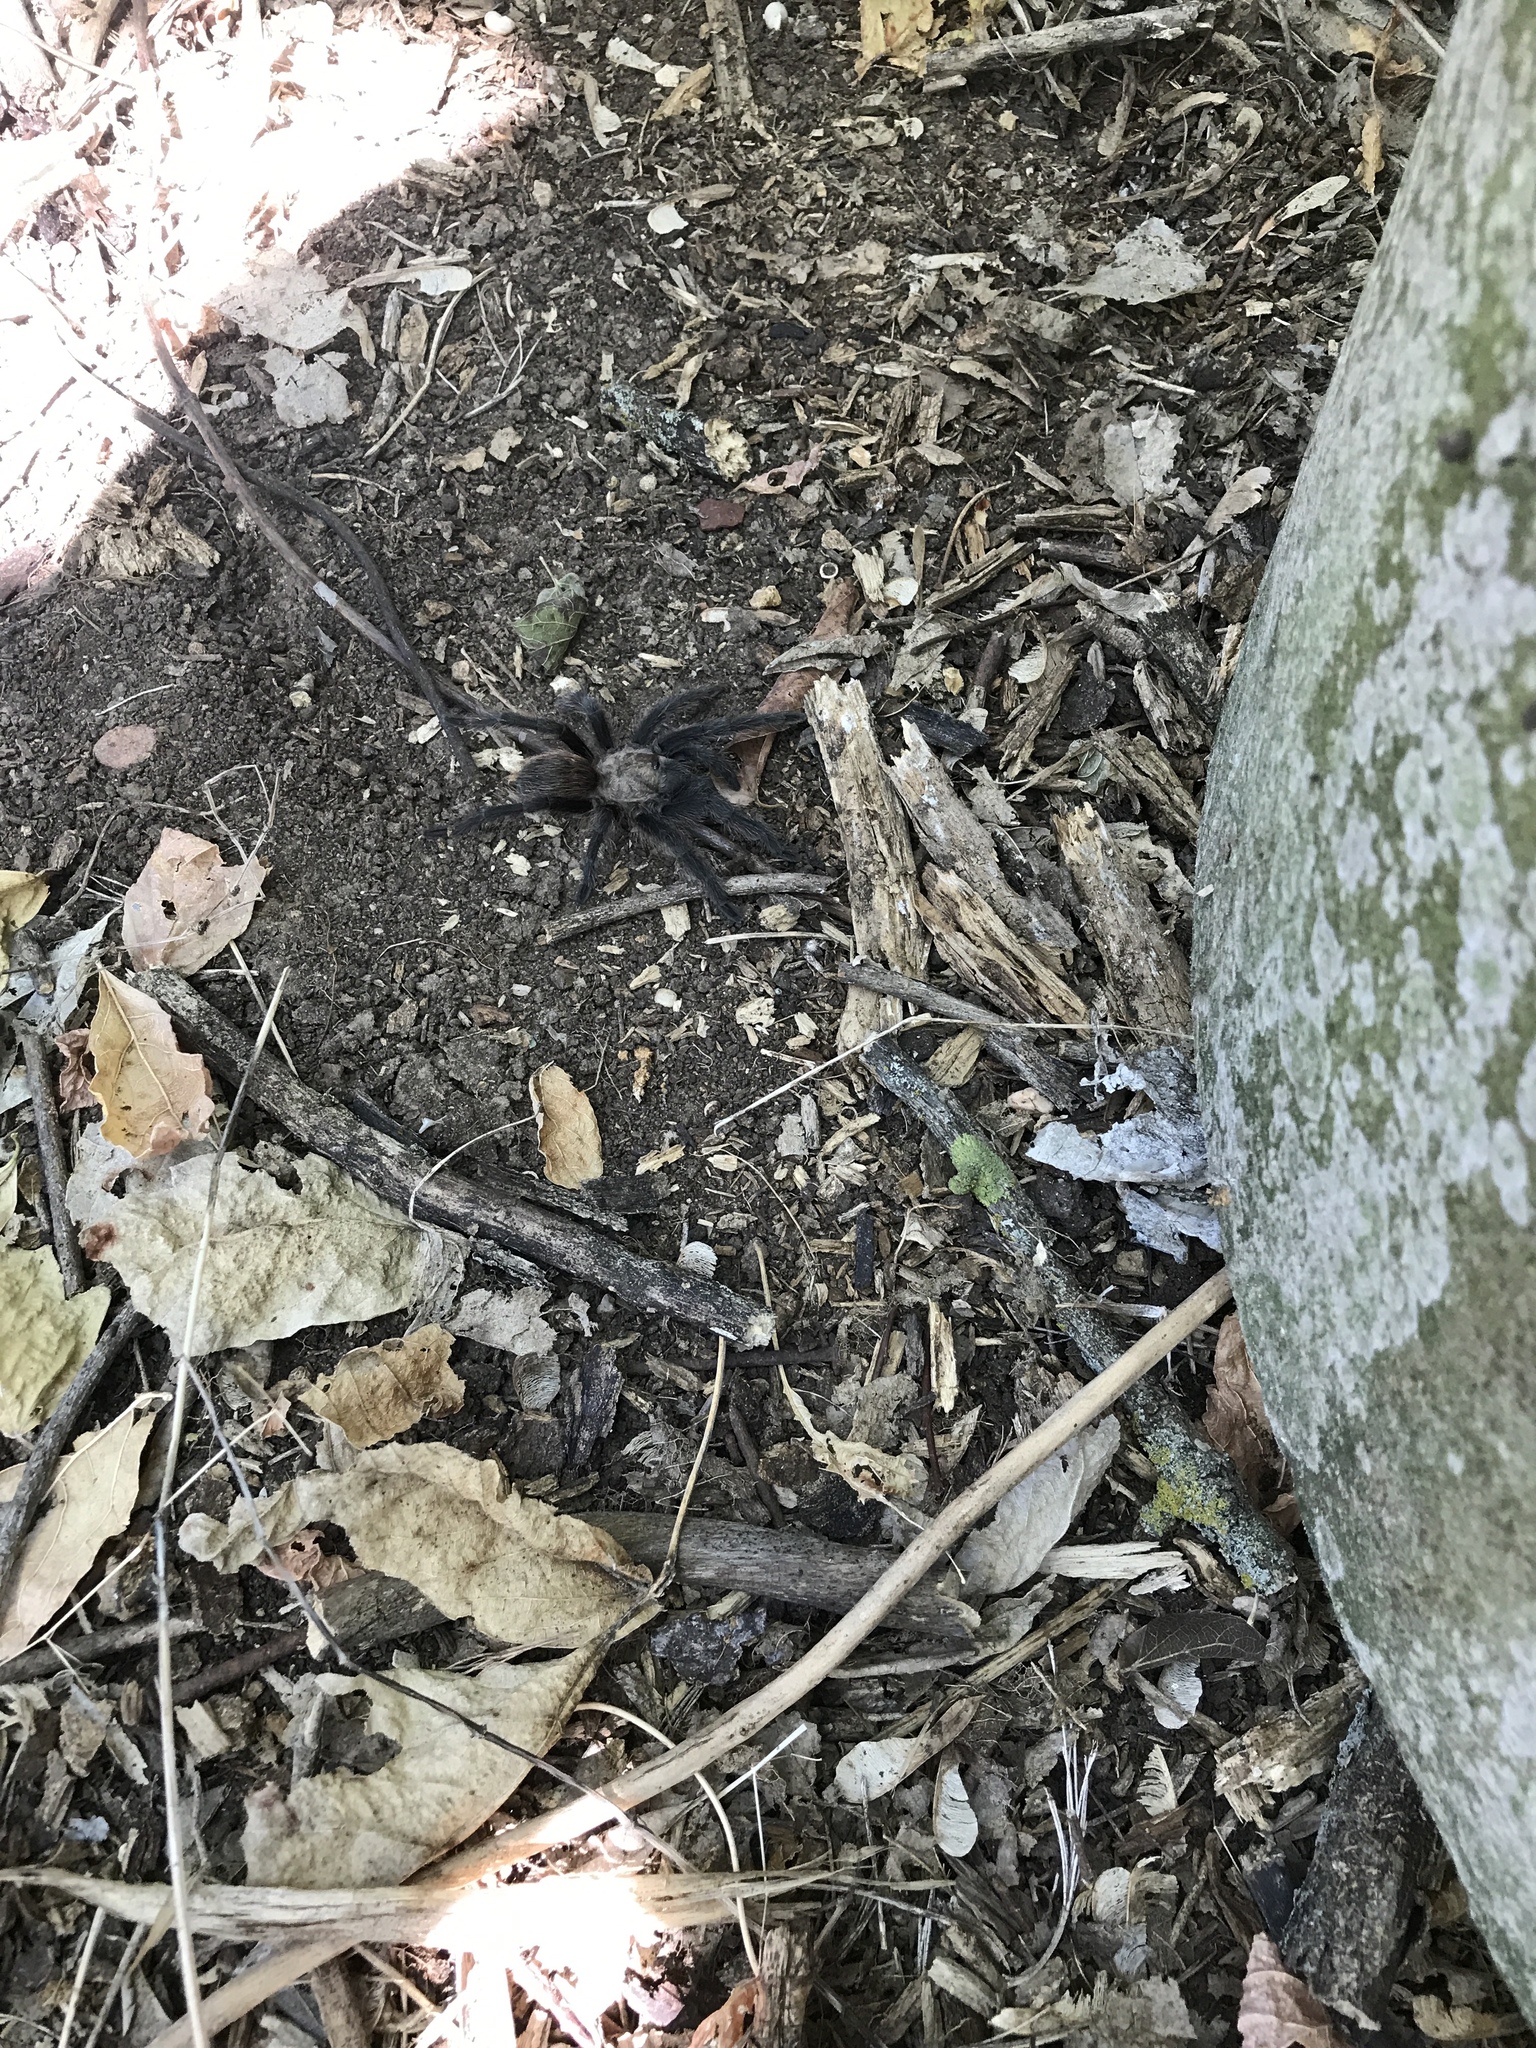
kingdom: Animalia
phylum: Arthropoda
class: Arachnida
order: Araneae
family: Theraphosidae
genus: Aphonopelma
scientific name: Aphonopelma hentzi
